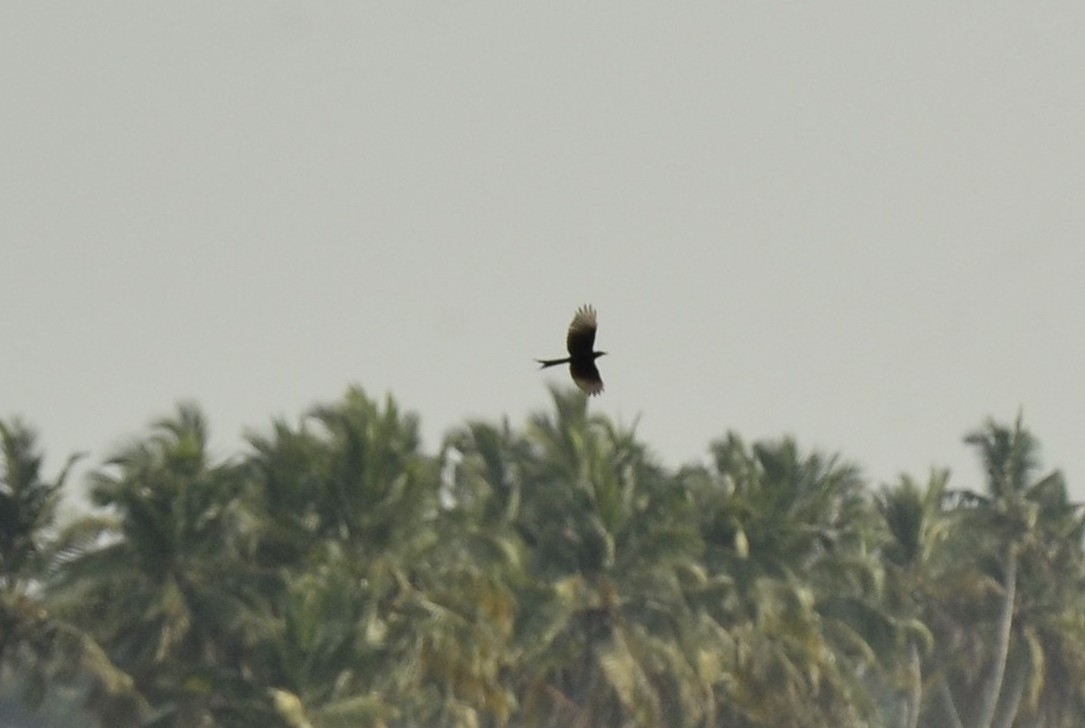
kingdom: Animalia
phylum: Chordata
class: Aves
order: Passeriformes
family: Dicruridae
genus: Dicrurus
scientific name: Dicrurus macrocercus
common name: Black drongo
